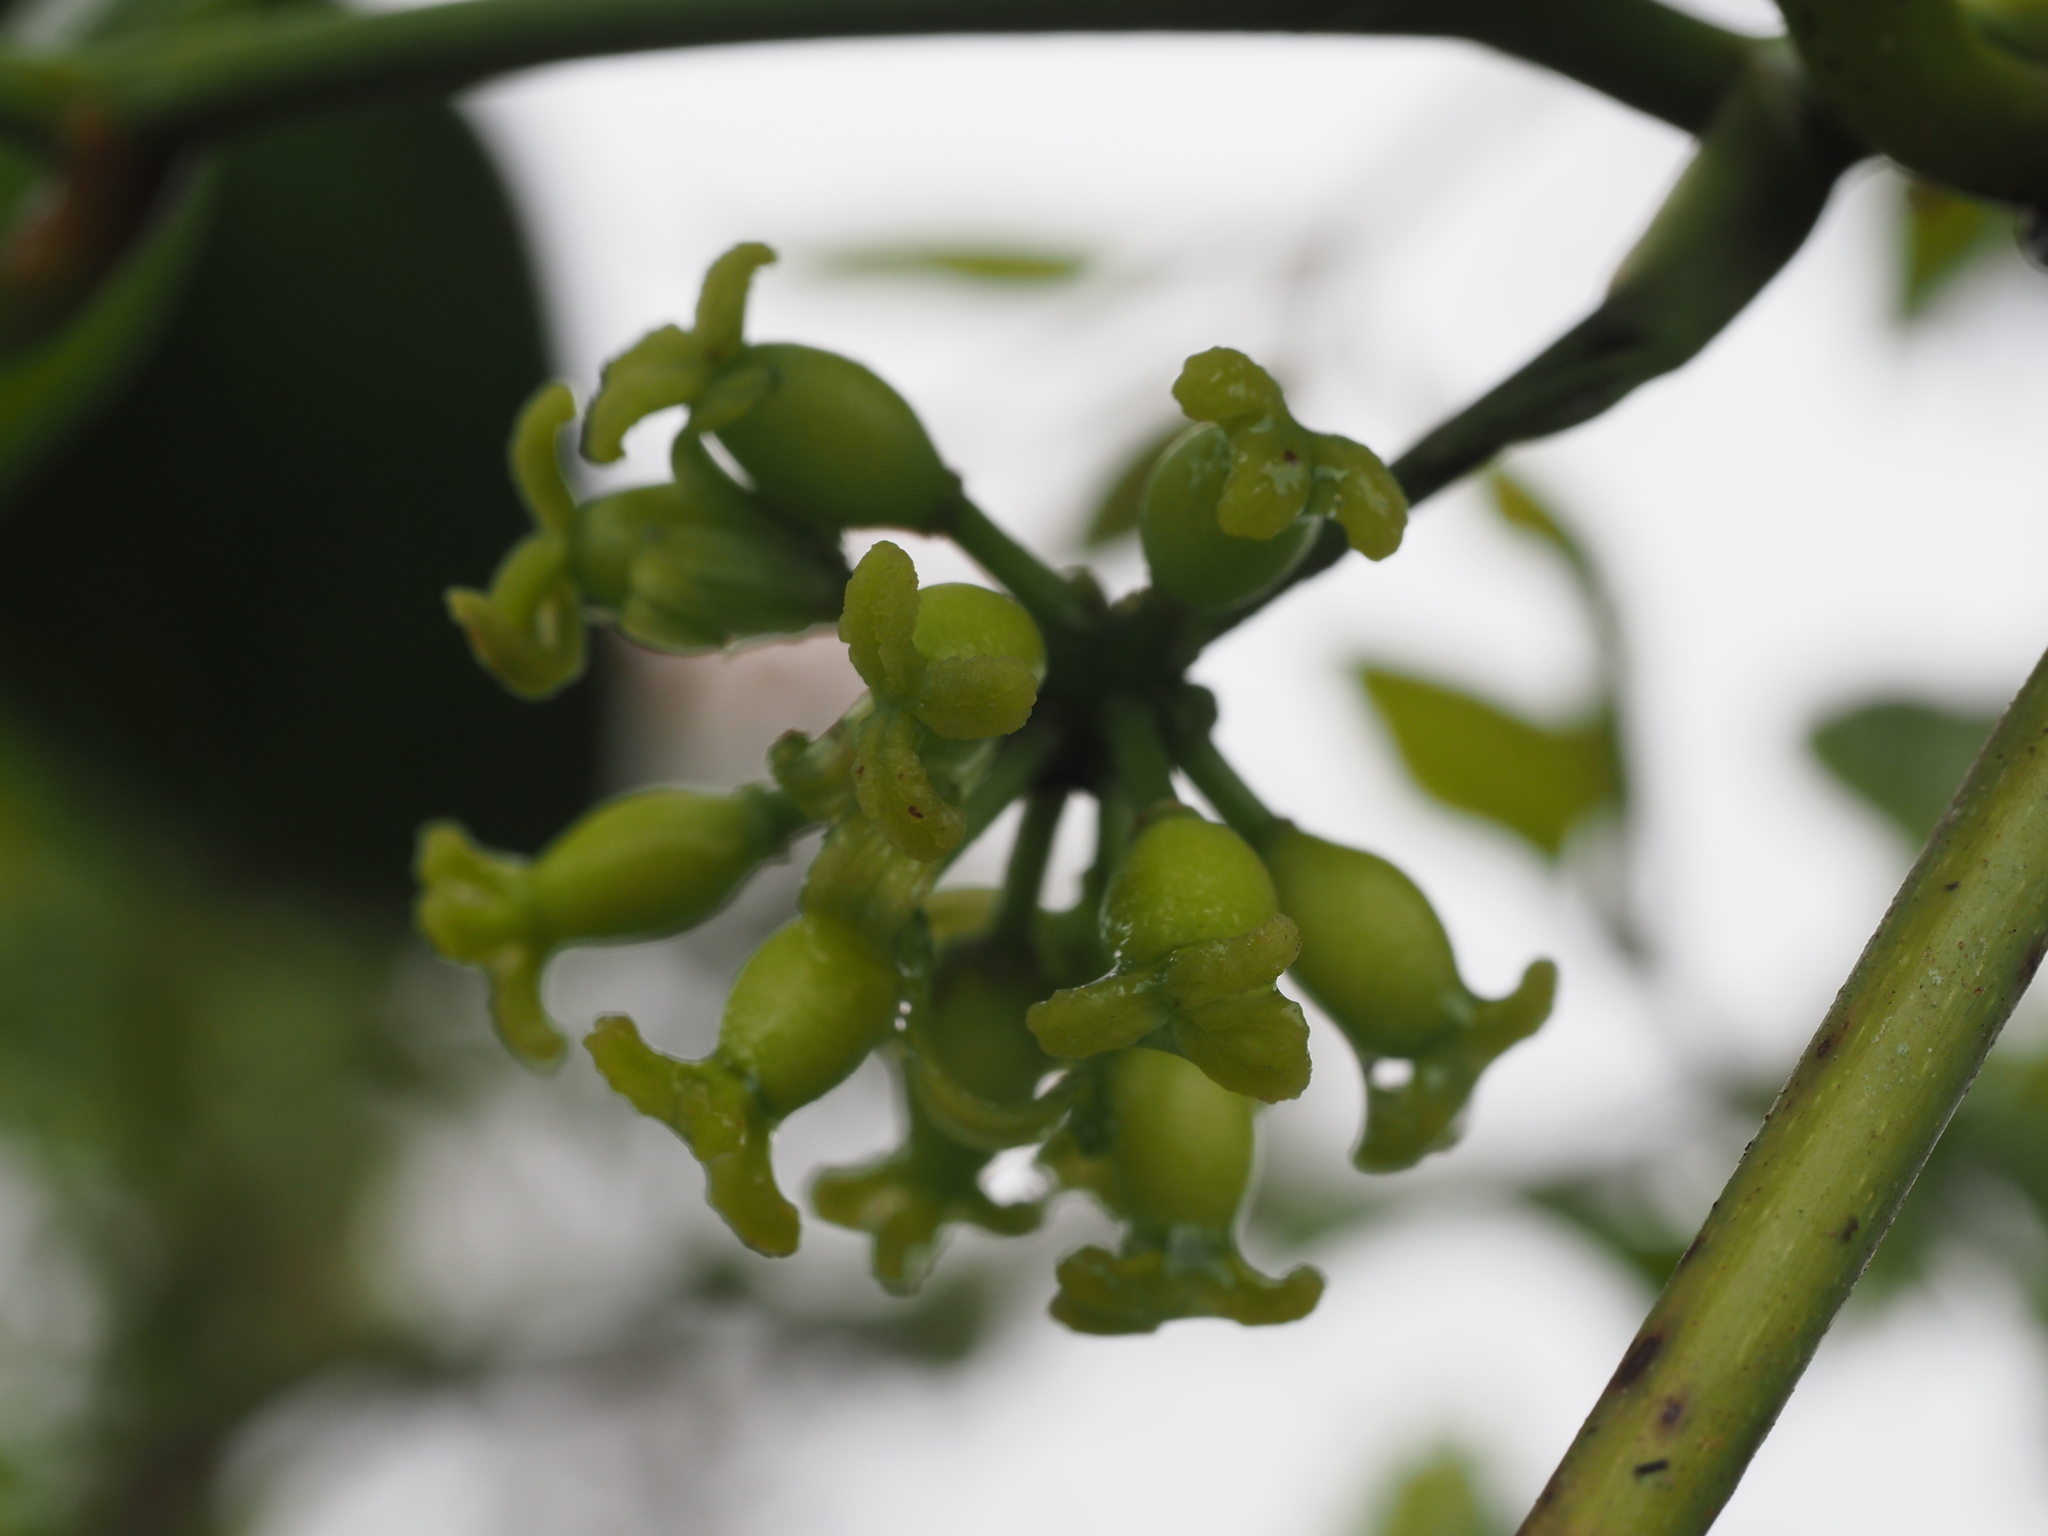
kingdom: Plantae
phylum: Tracheophyta
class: Liliopsida
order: Liliales
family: Smilacaceae
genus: Smilax
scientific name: Smilax melastomifolia
